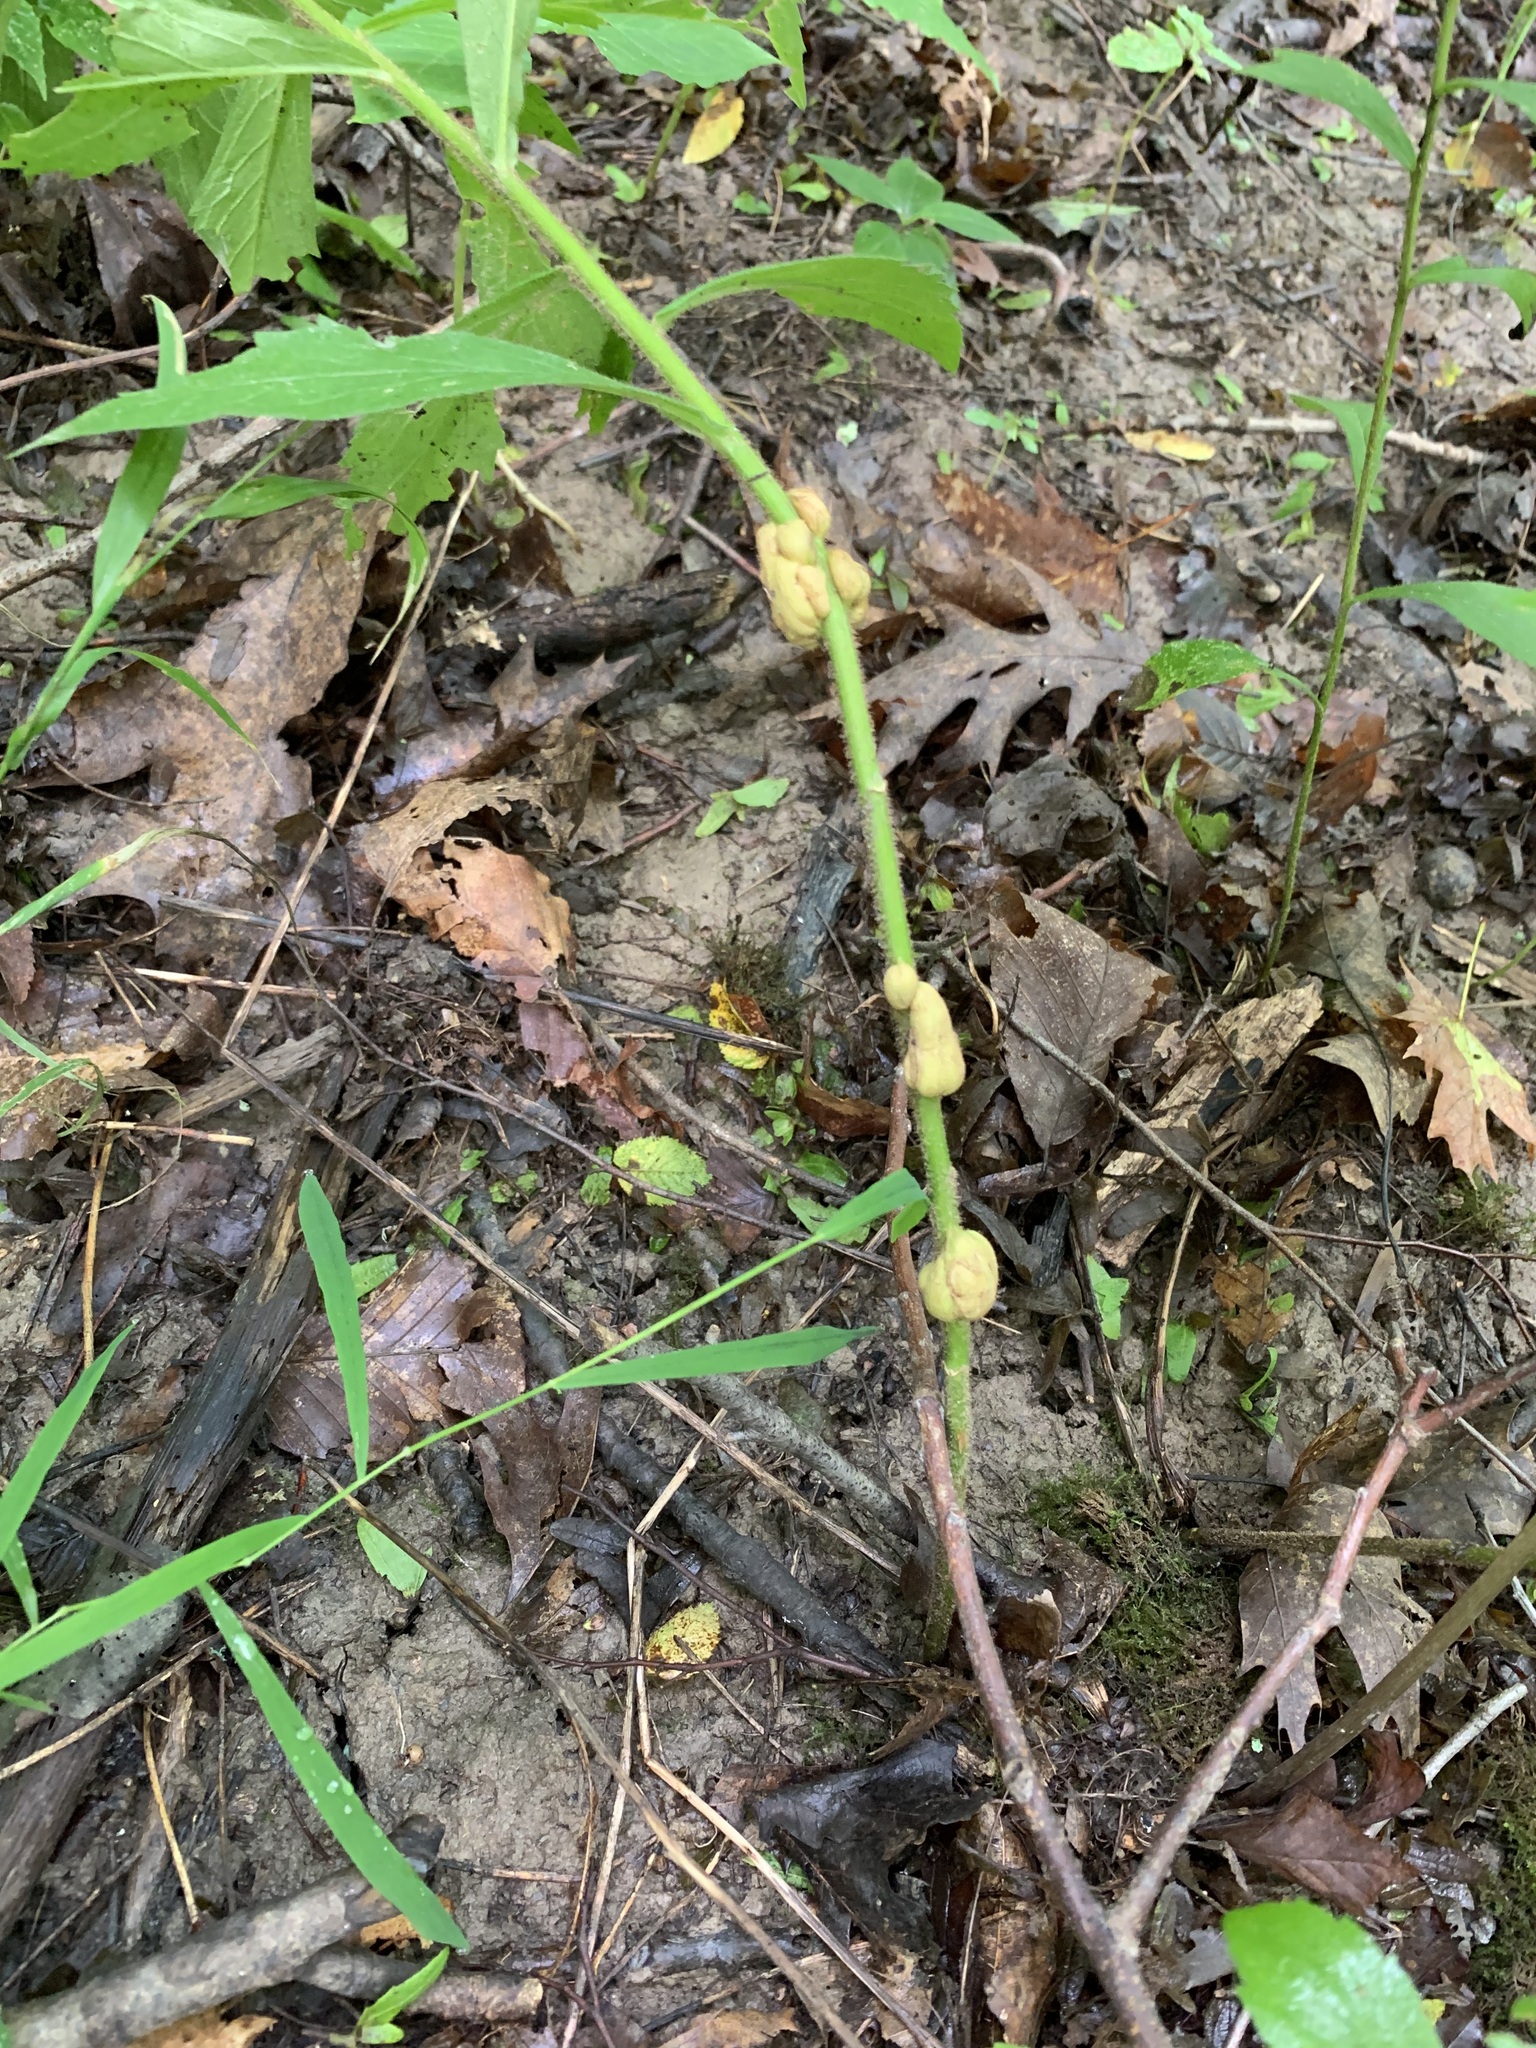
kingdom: Animalia
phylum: Arthropoda
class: Insecta
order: Diptera
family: Cecidomyiidae
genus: Asteromyia
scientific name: Asteromyia tumifica
